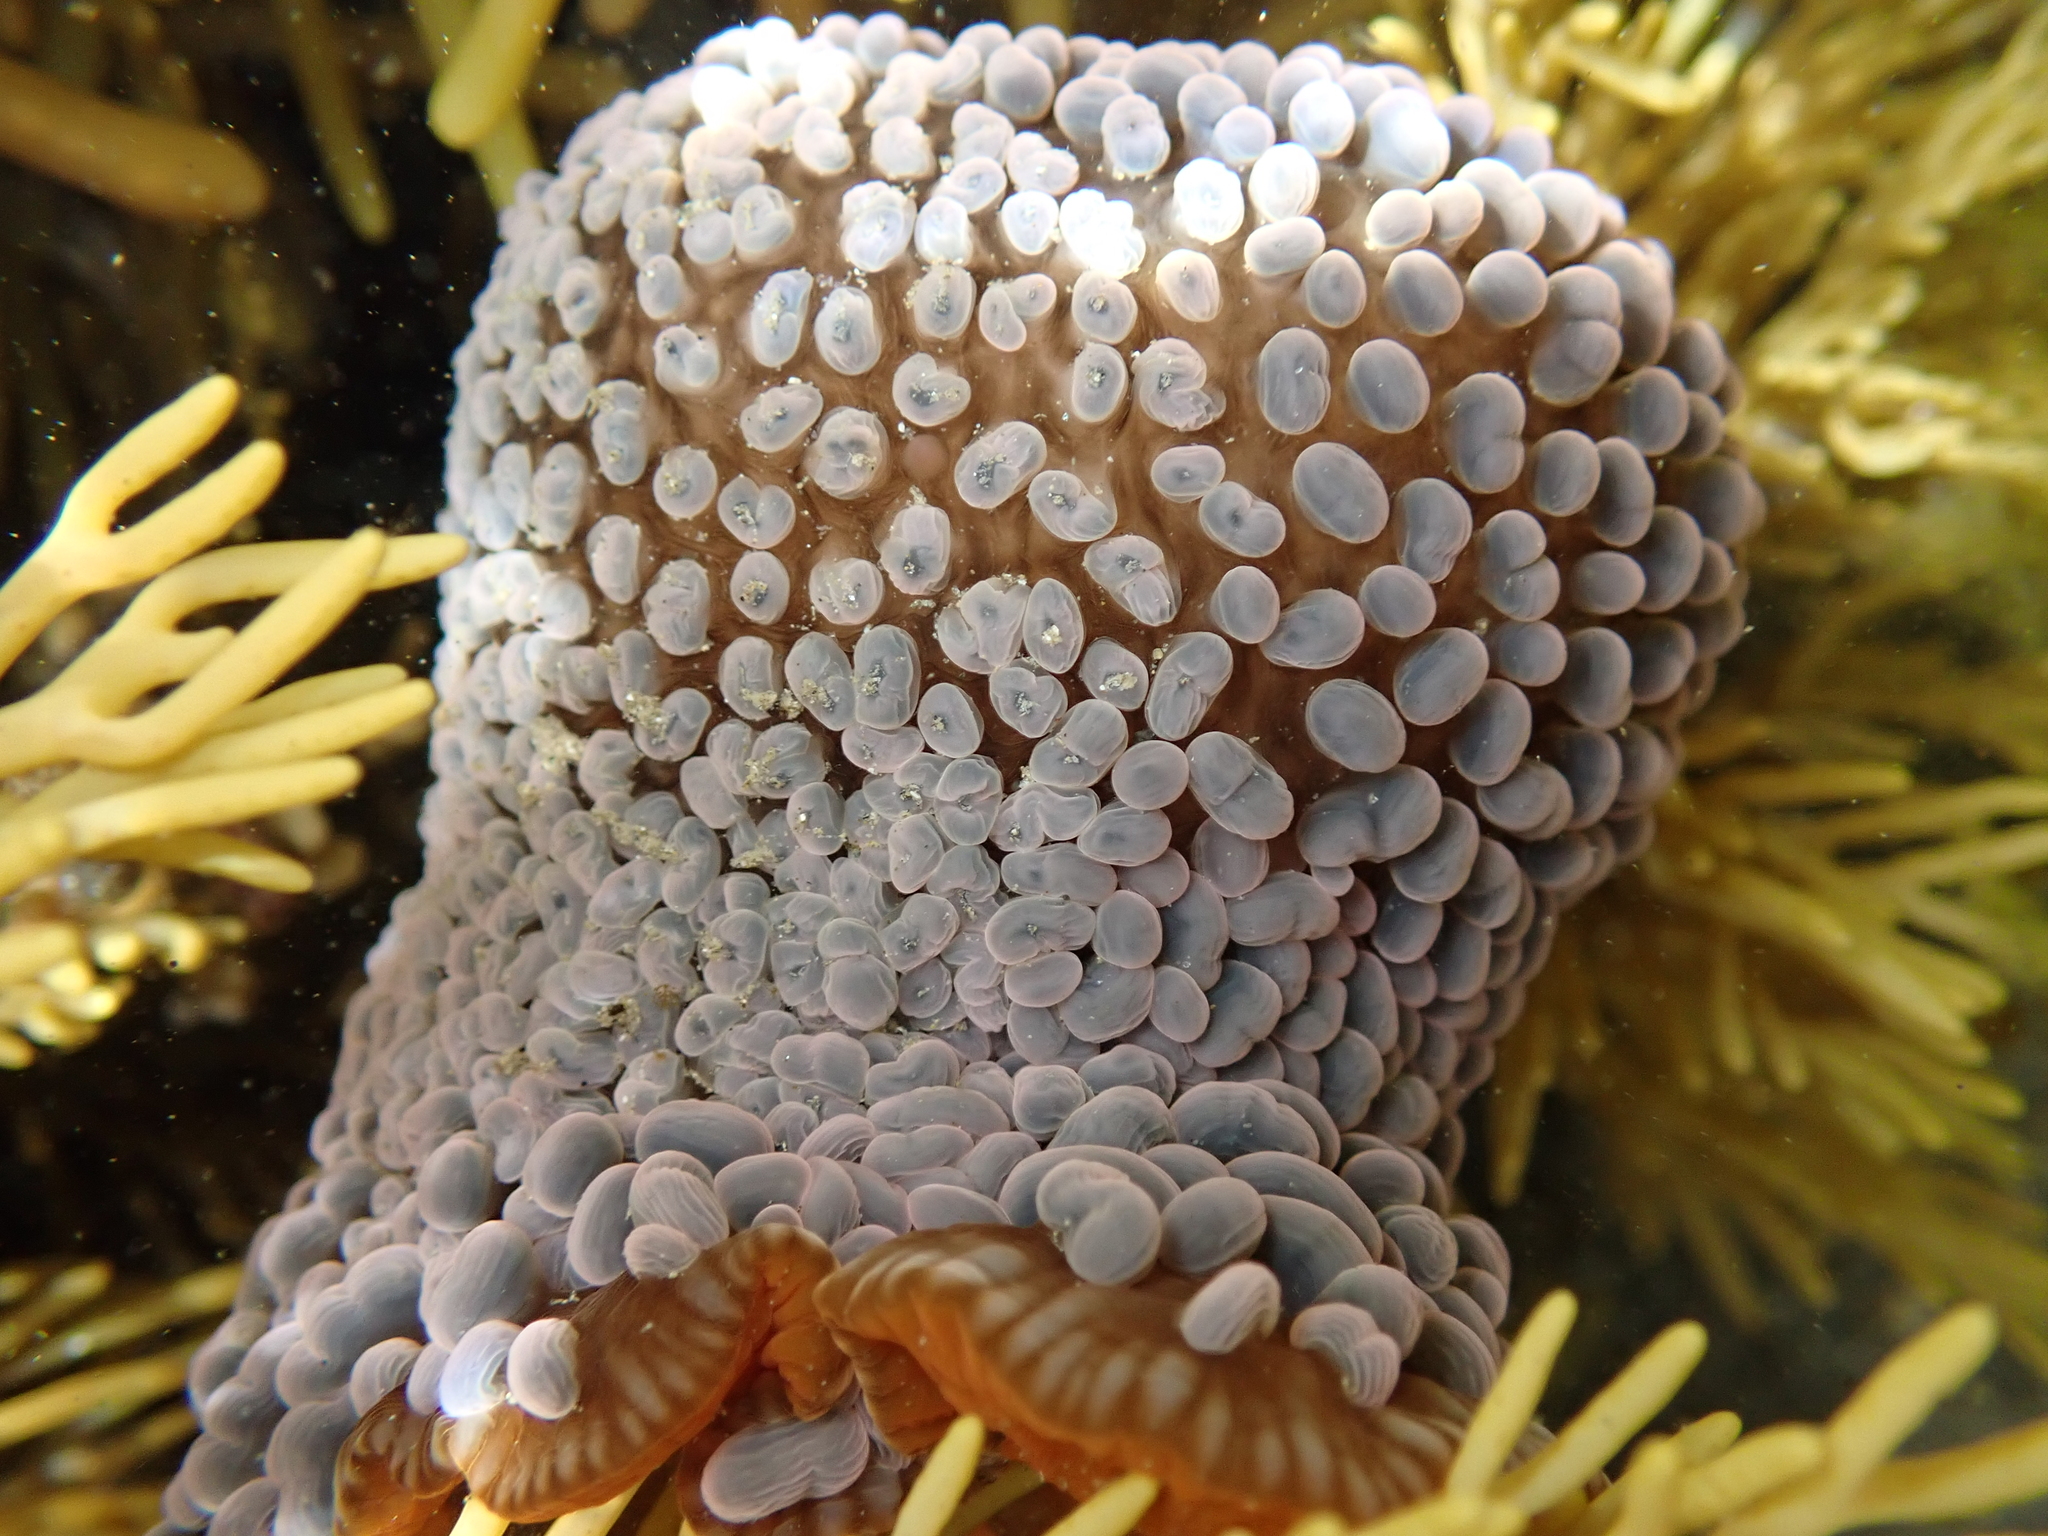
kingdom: Animalia
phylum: Cnidaria
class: Anthozoa
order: Actiniaria
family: Actiniidae
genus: Phlyctenactis
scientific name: Phlyctenactis tuberculosa
